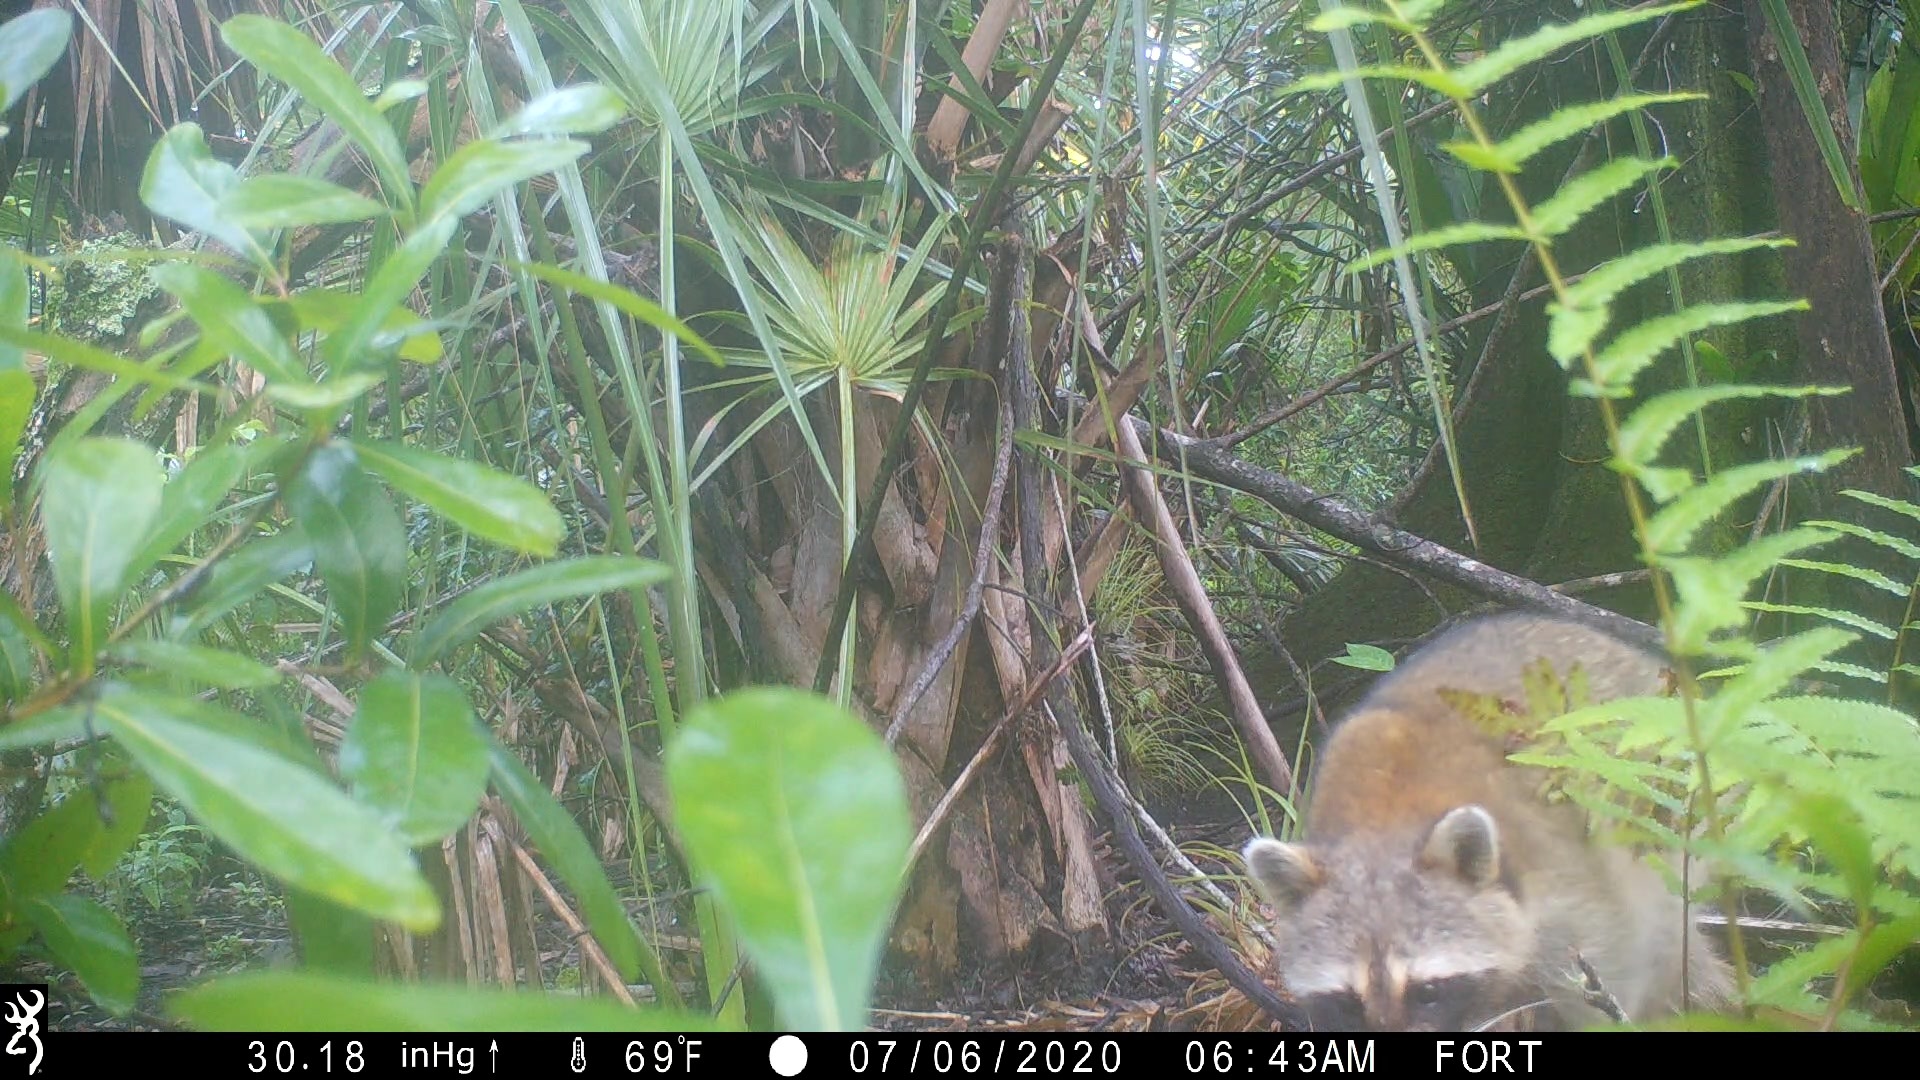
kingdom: Animalia
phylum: Chordata
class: Mammalia
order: Carnivora
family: Procyonidae
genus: Procyon
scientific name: Procyon lotor
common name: Raccoon
